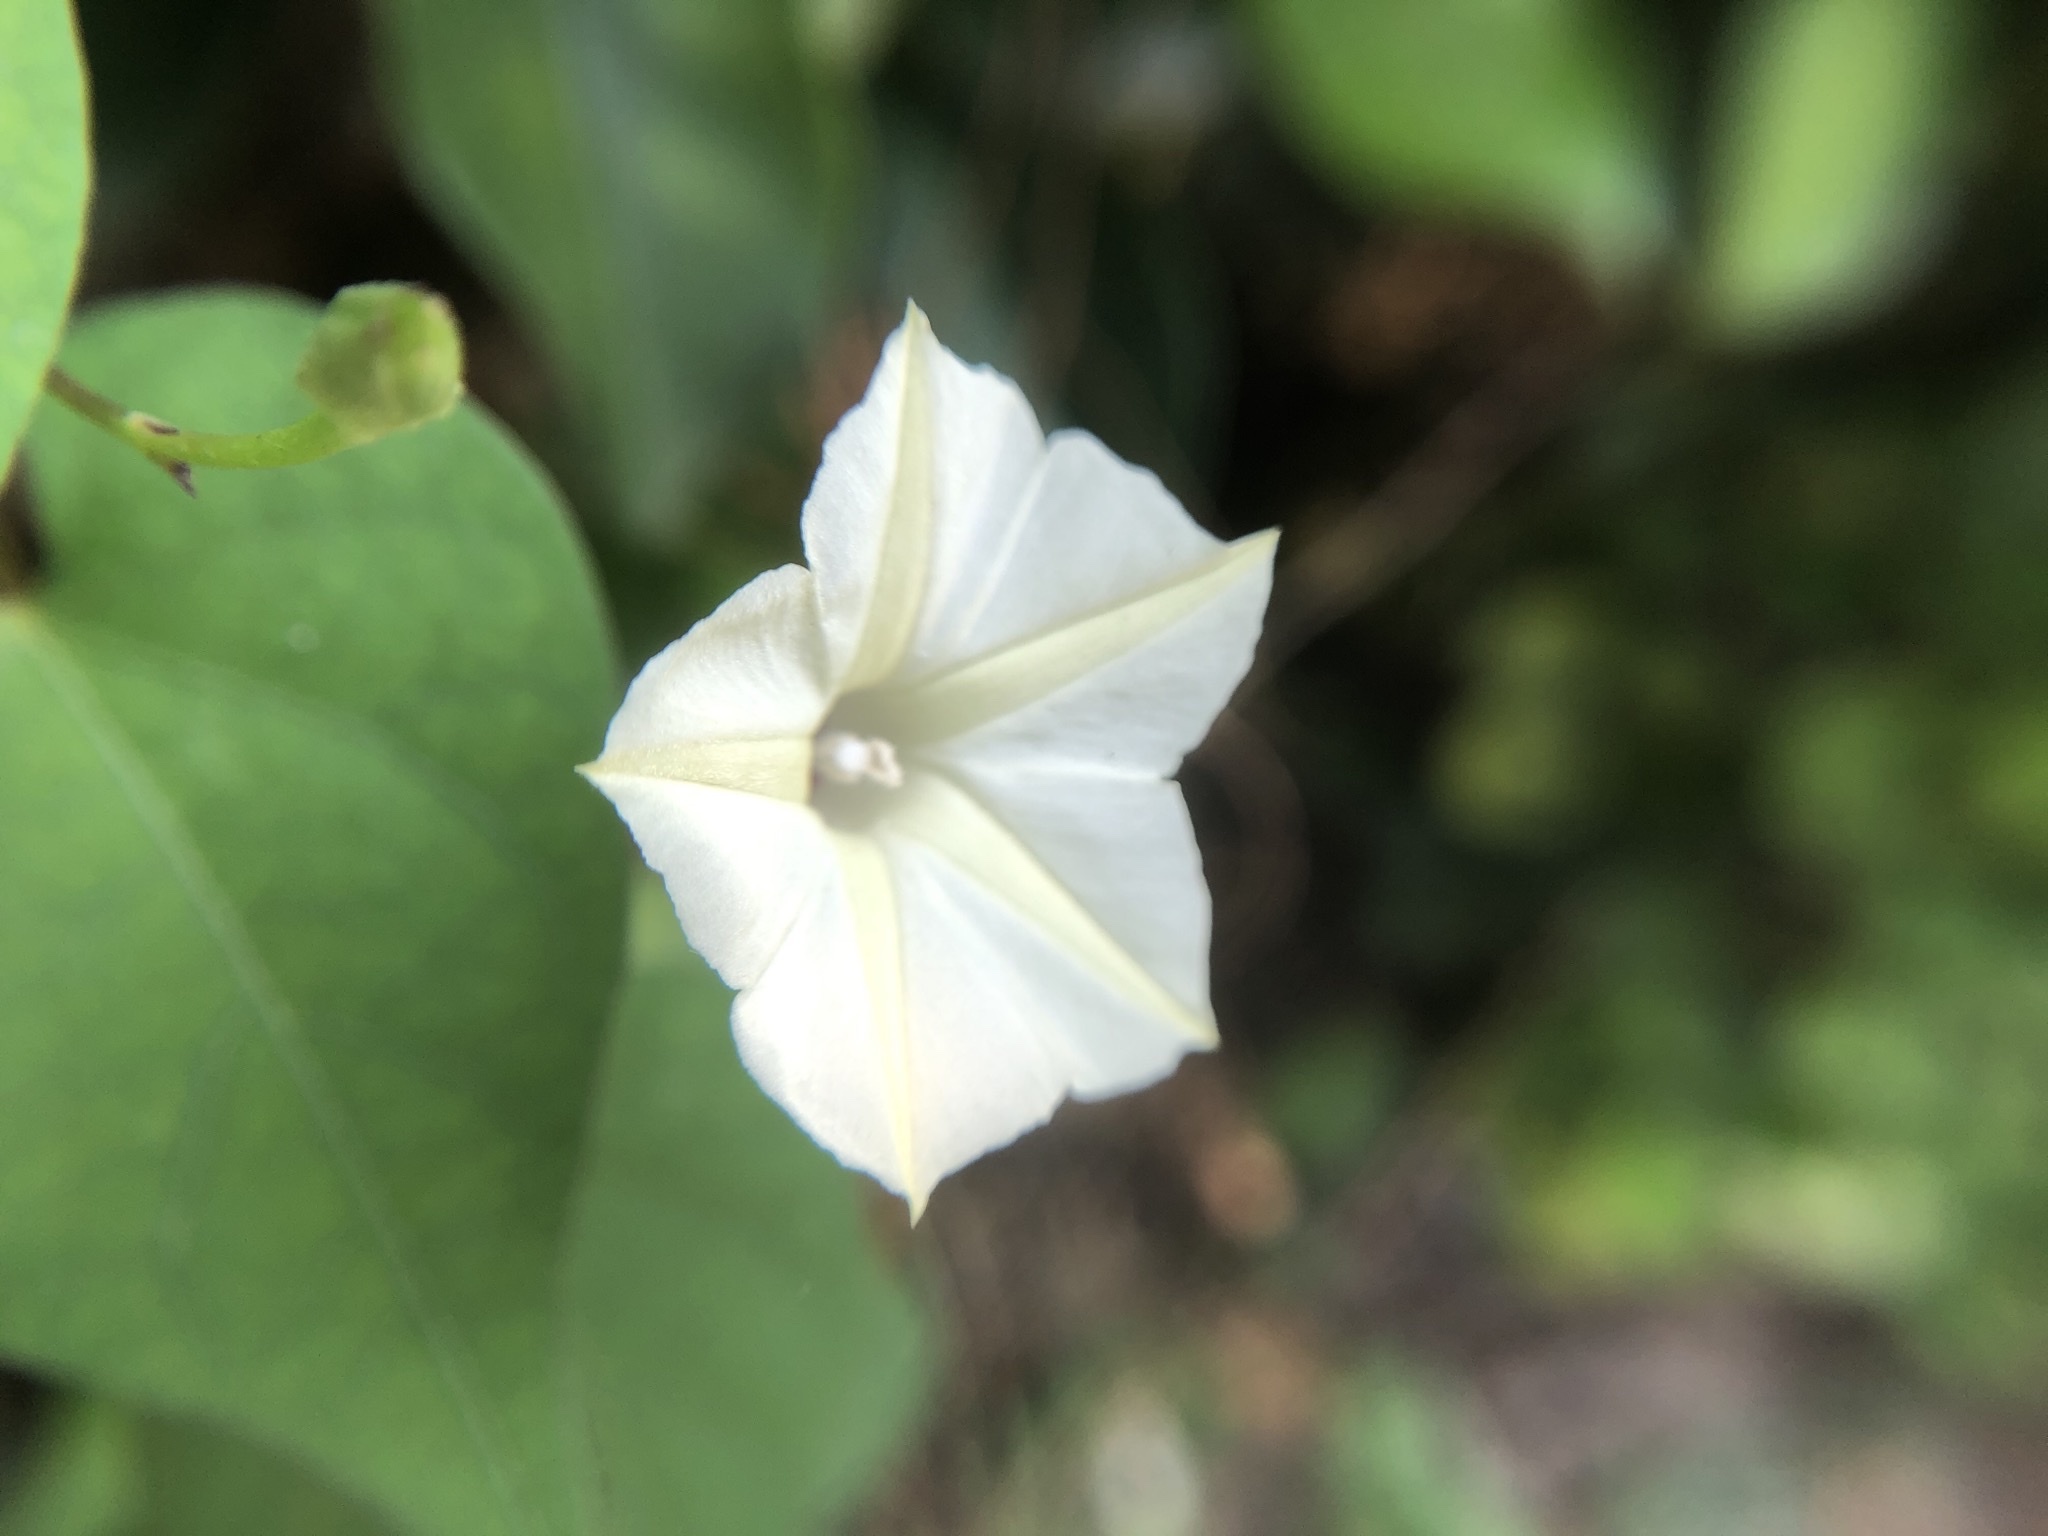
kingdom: Plantae
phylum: Tracheophyta
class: Magnoliopsida
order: Solanales
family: Convolvulaceae
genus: Ipomoea
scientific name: Ipomoea obscura
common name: Obscure morning-glory
